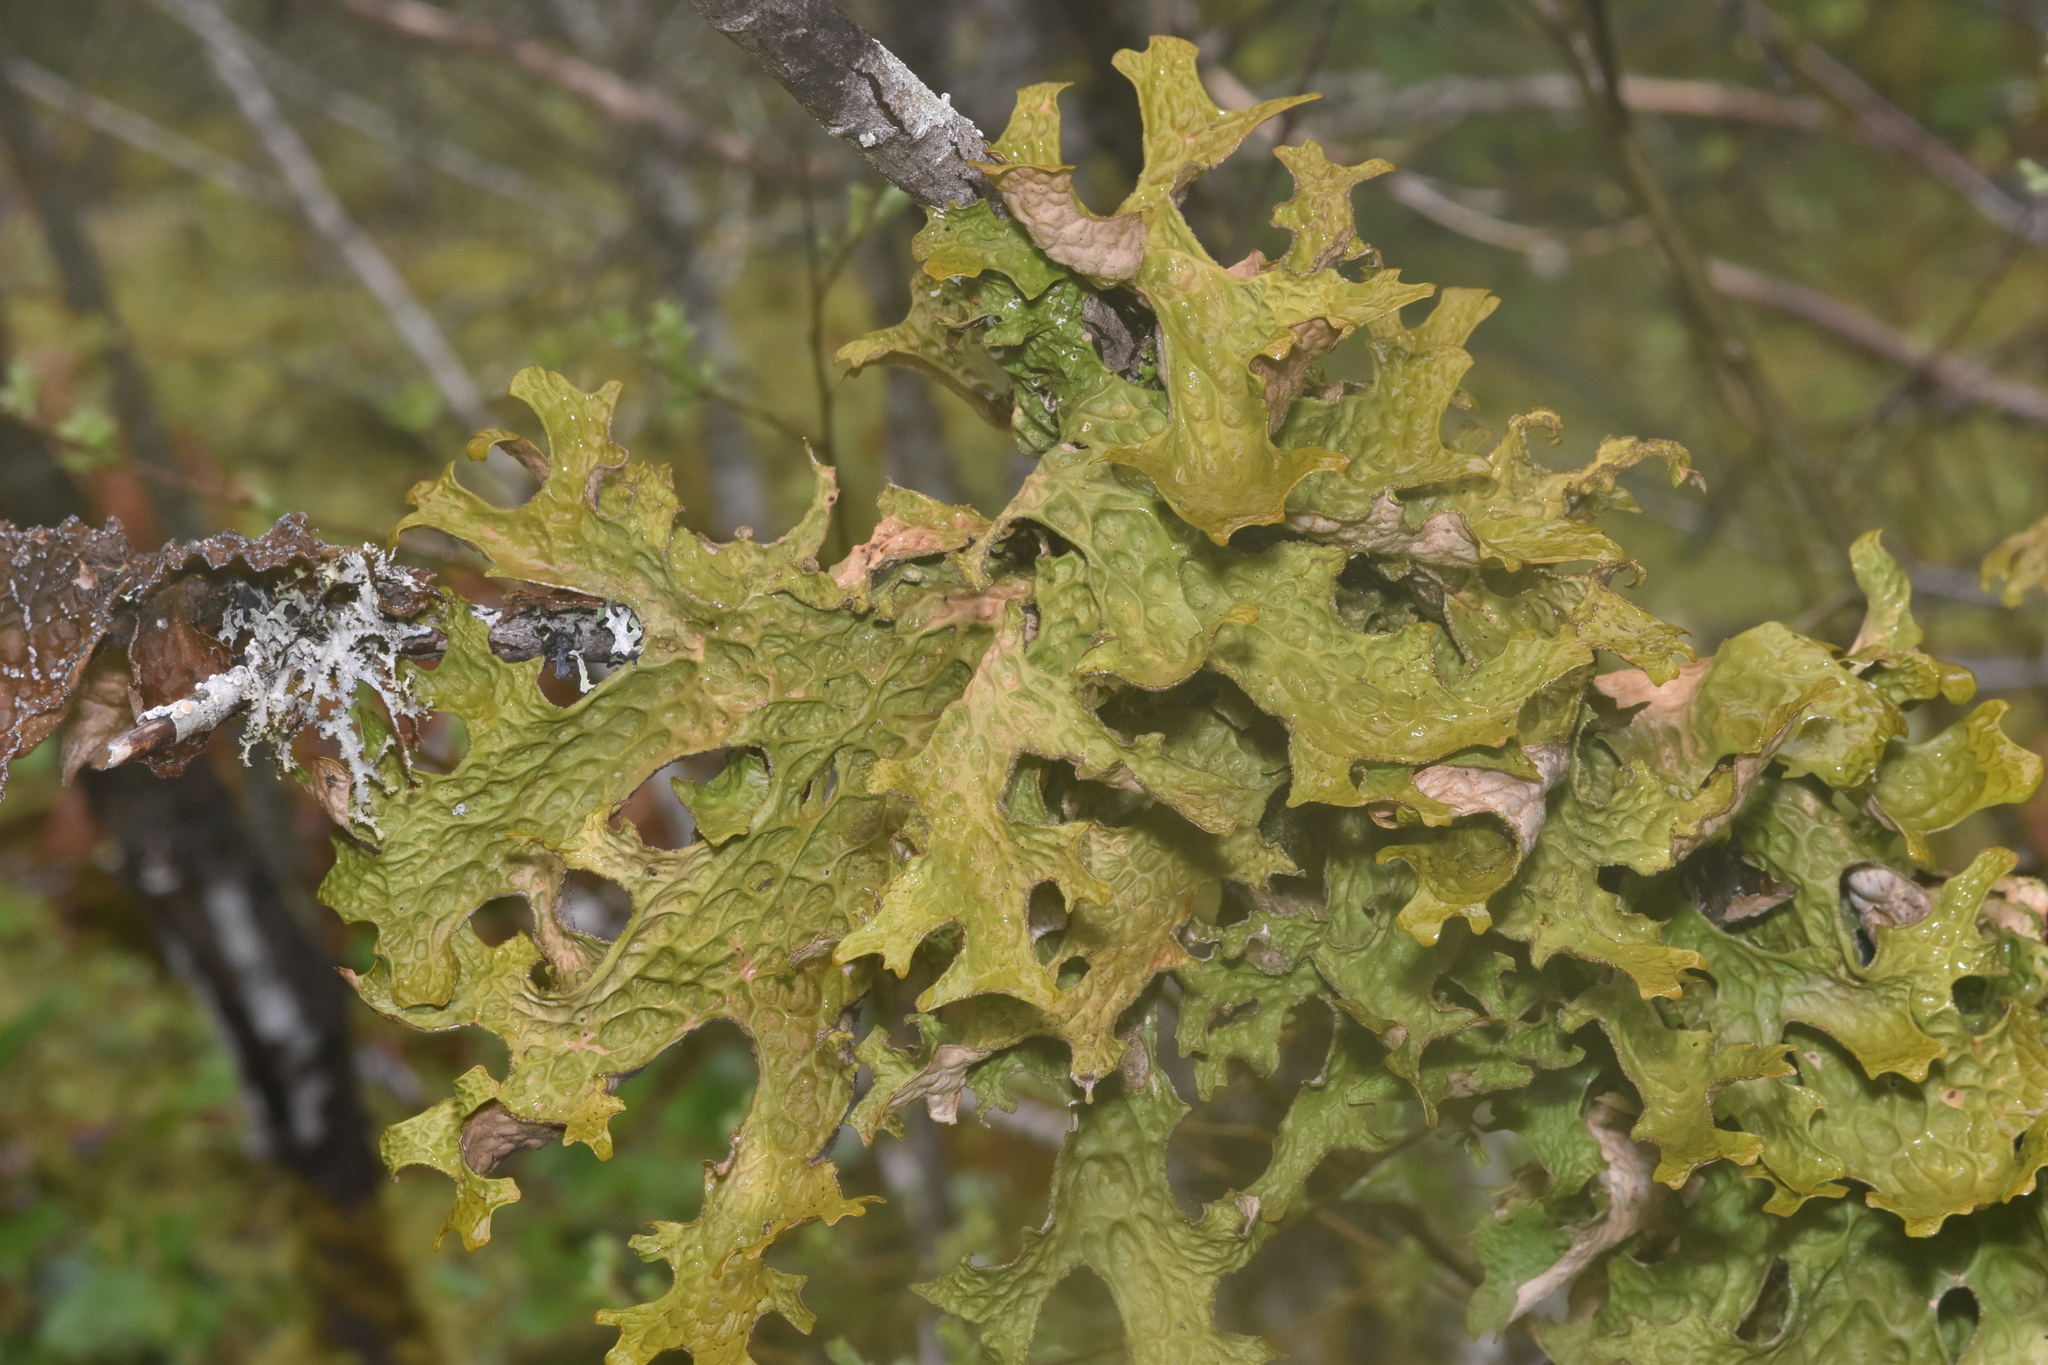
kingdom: Fungi
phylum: Ascomycota
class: Lecanoromycetes
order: Peltigerales
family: Lobariaceae
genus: Lobaria
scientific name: Lobaria pulmonaria
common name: Lungwort
